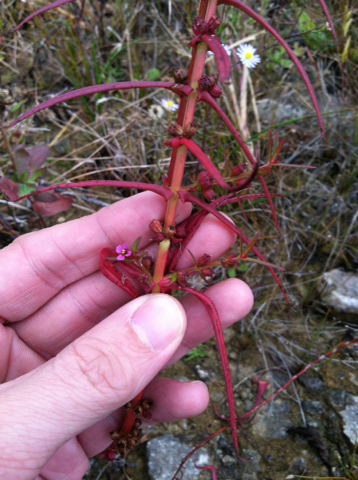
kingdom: Plantae
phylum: Tracheophyta
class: Magnoliopsida
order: Myrtales
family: Lythraceae
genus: Ammannia
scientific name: Ammannia coccinea
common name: Valley redstem
